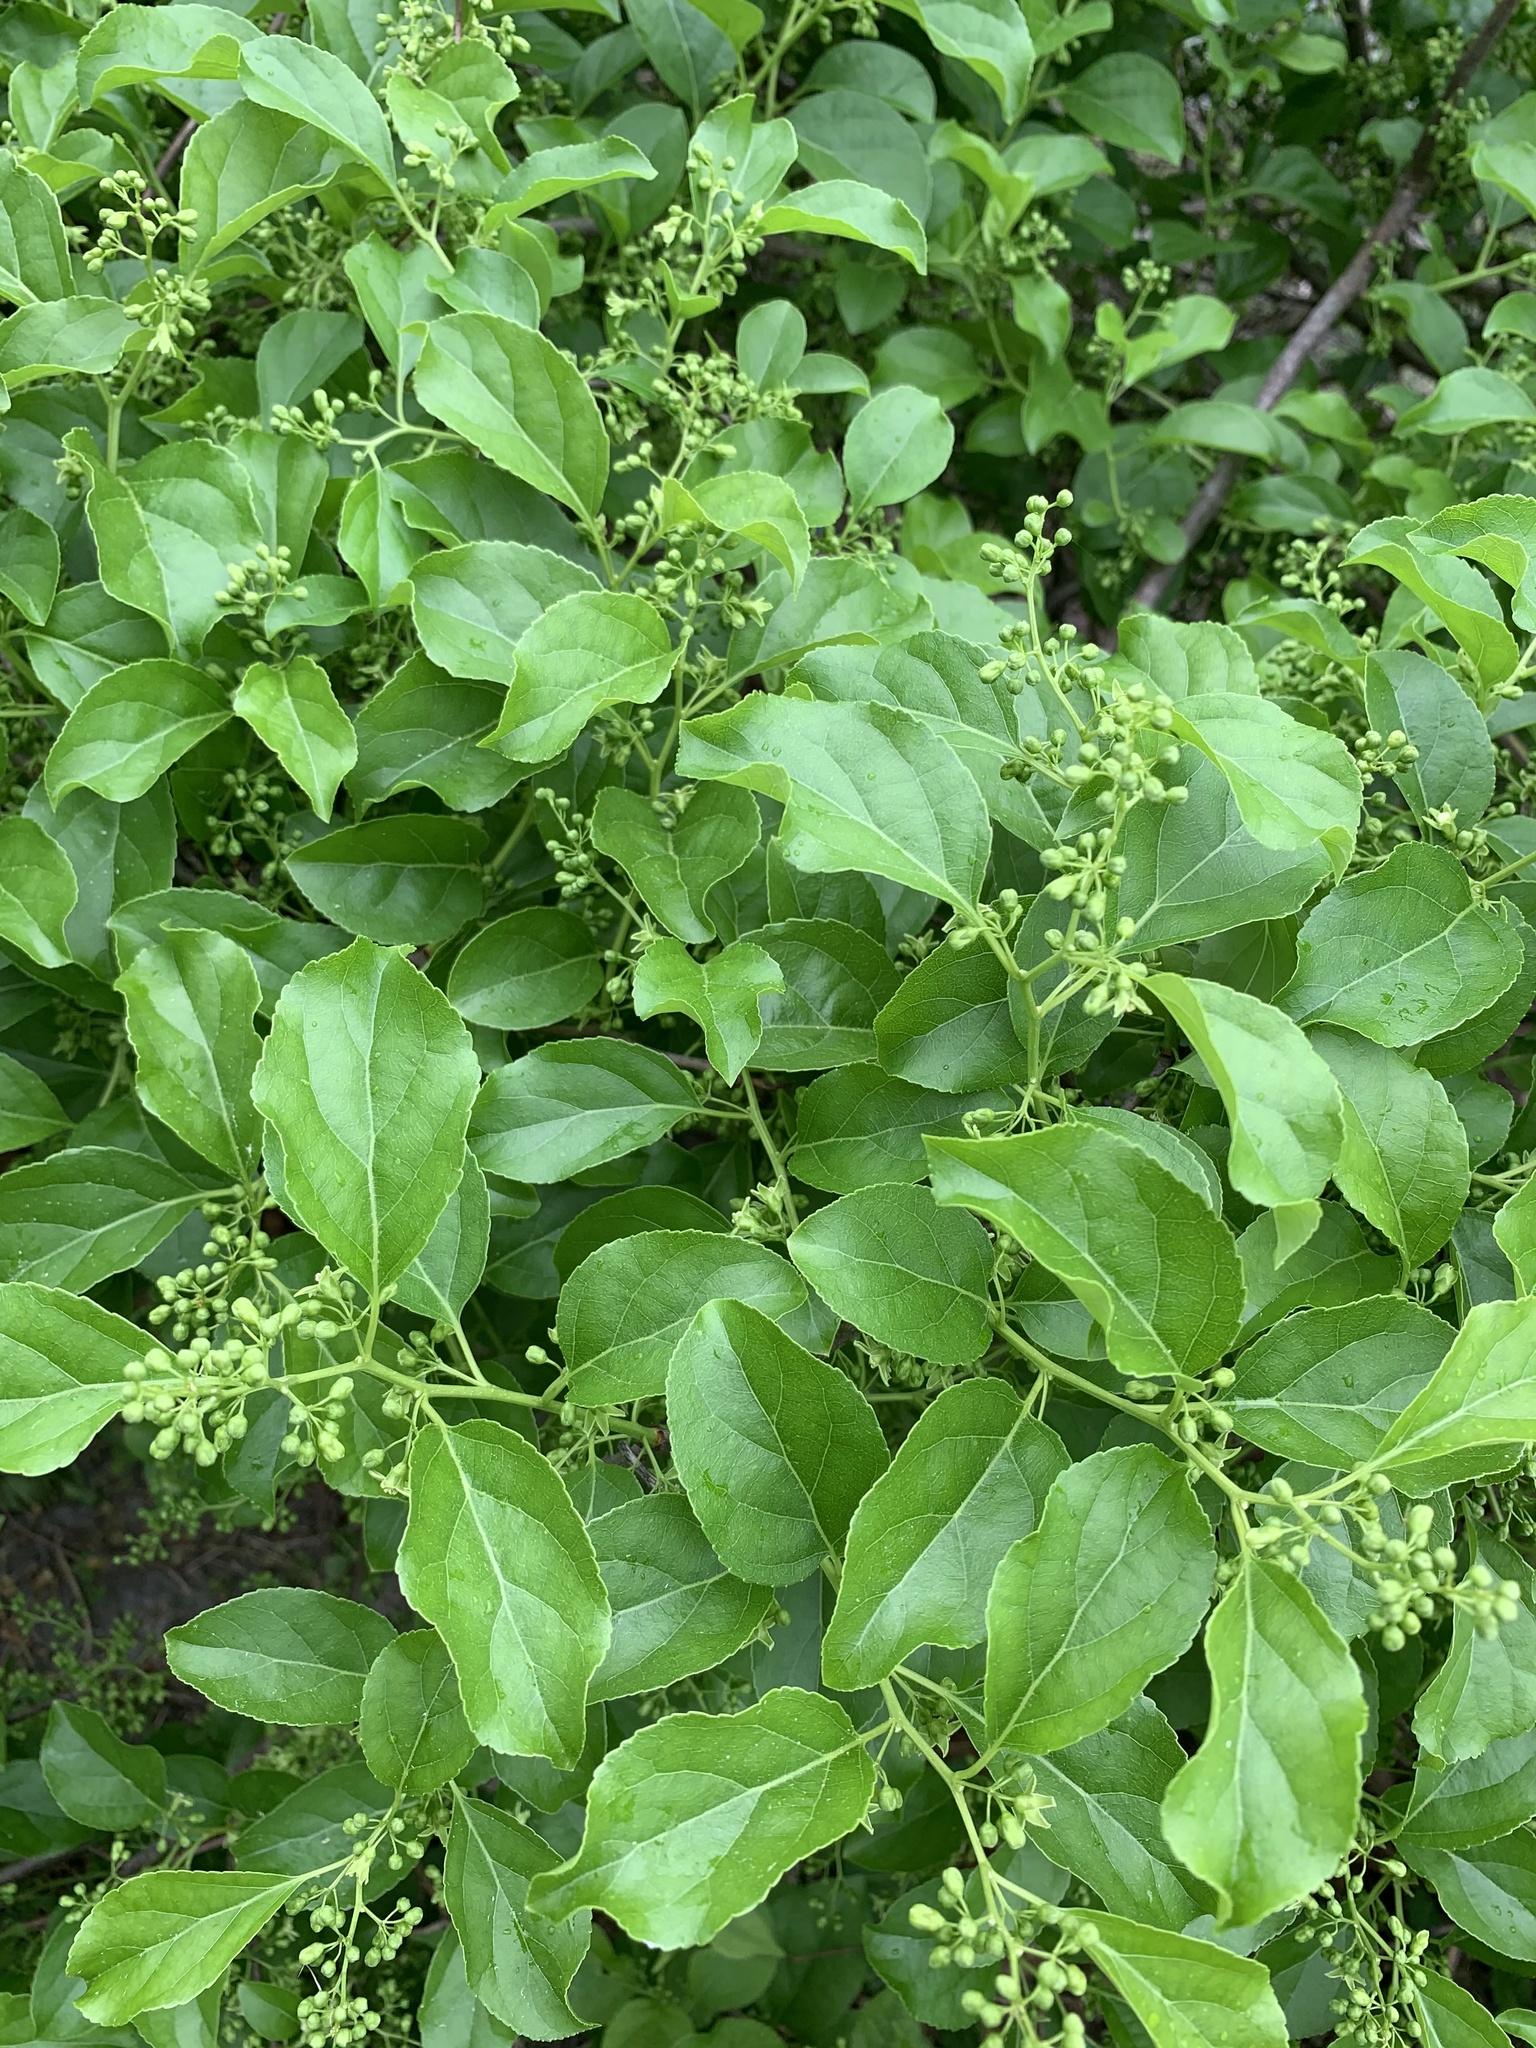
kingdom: Plantae
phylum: Tracheophyta
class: Magnoliopsida
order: Celastrales
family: Celastraceae
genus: Celastrus
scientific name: Celastrus orbiculatus
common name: Oriental bittersweet
